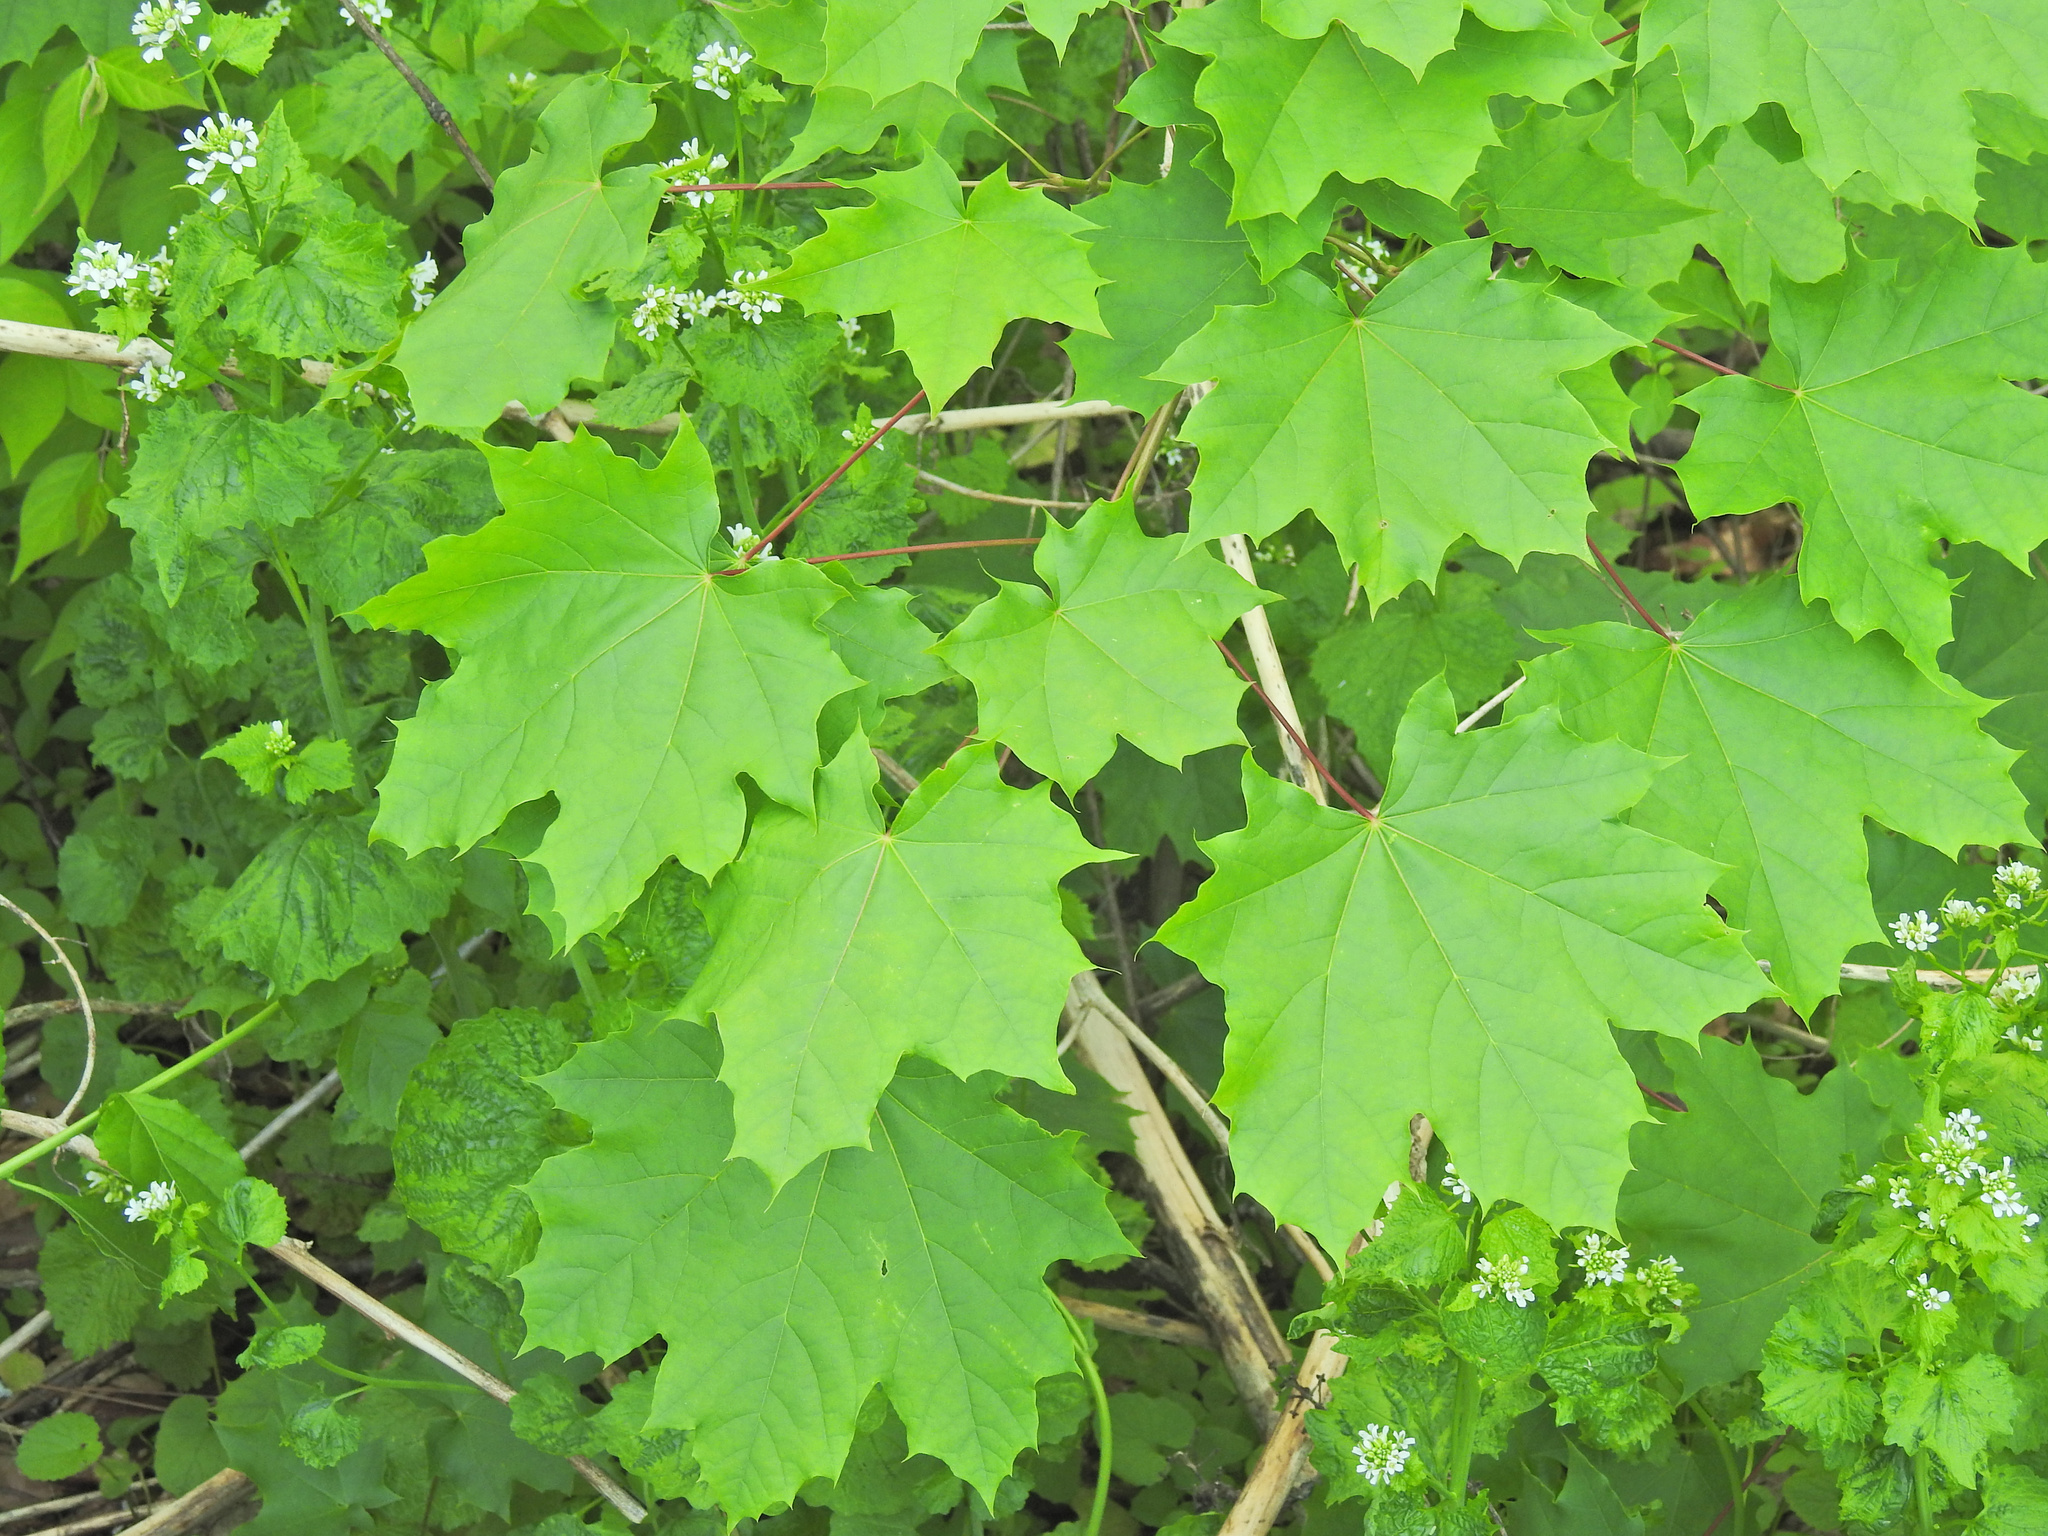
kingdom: Plantae
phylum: Tracheophyta
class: Magnoliopsida
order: Sapindales
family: Sapindaceae
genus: Acer
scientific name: Acer platanoides
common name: Norway maple
